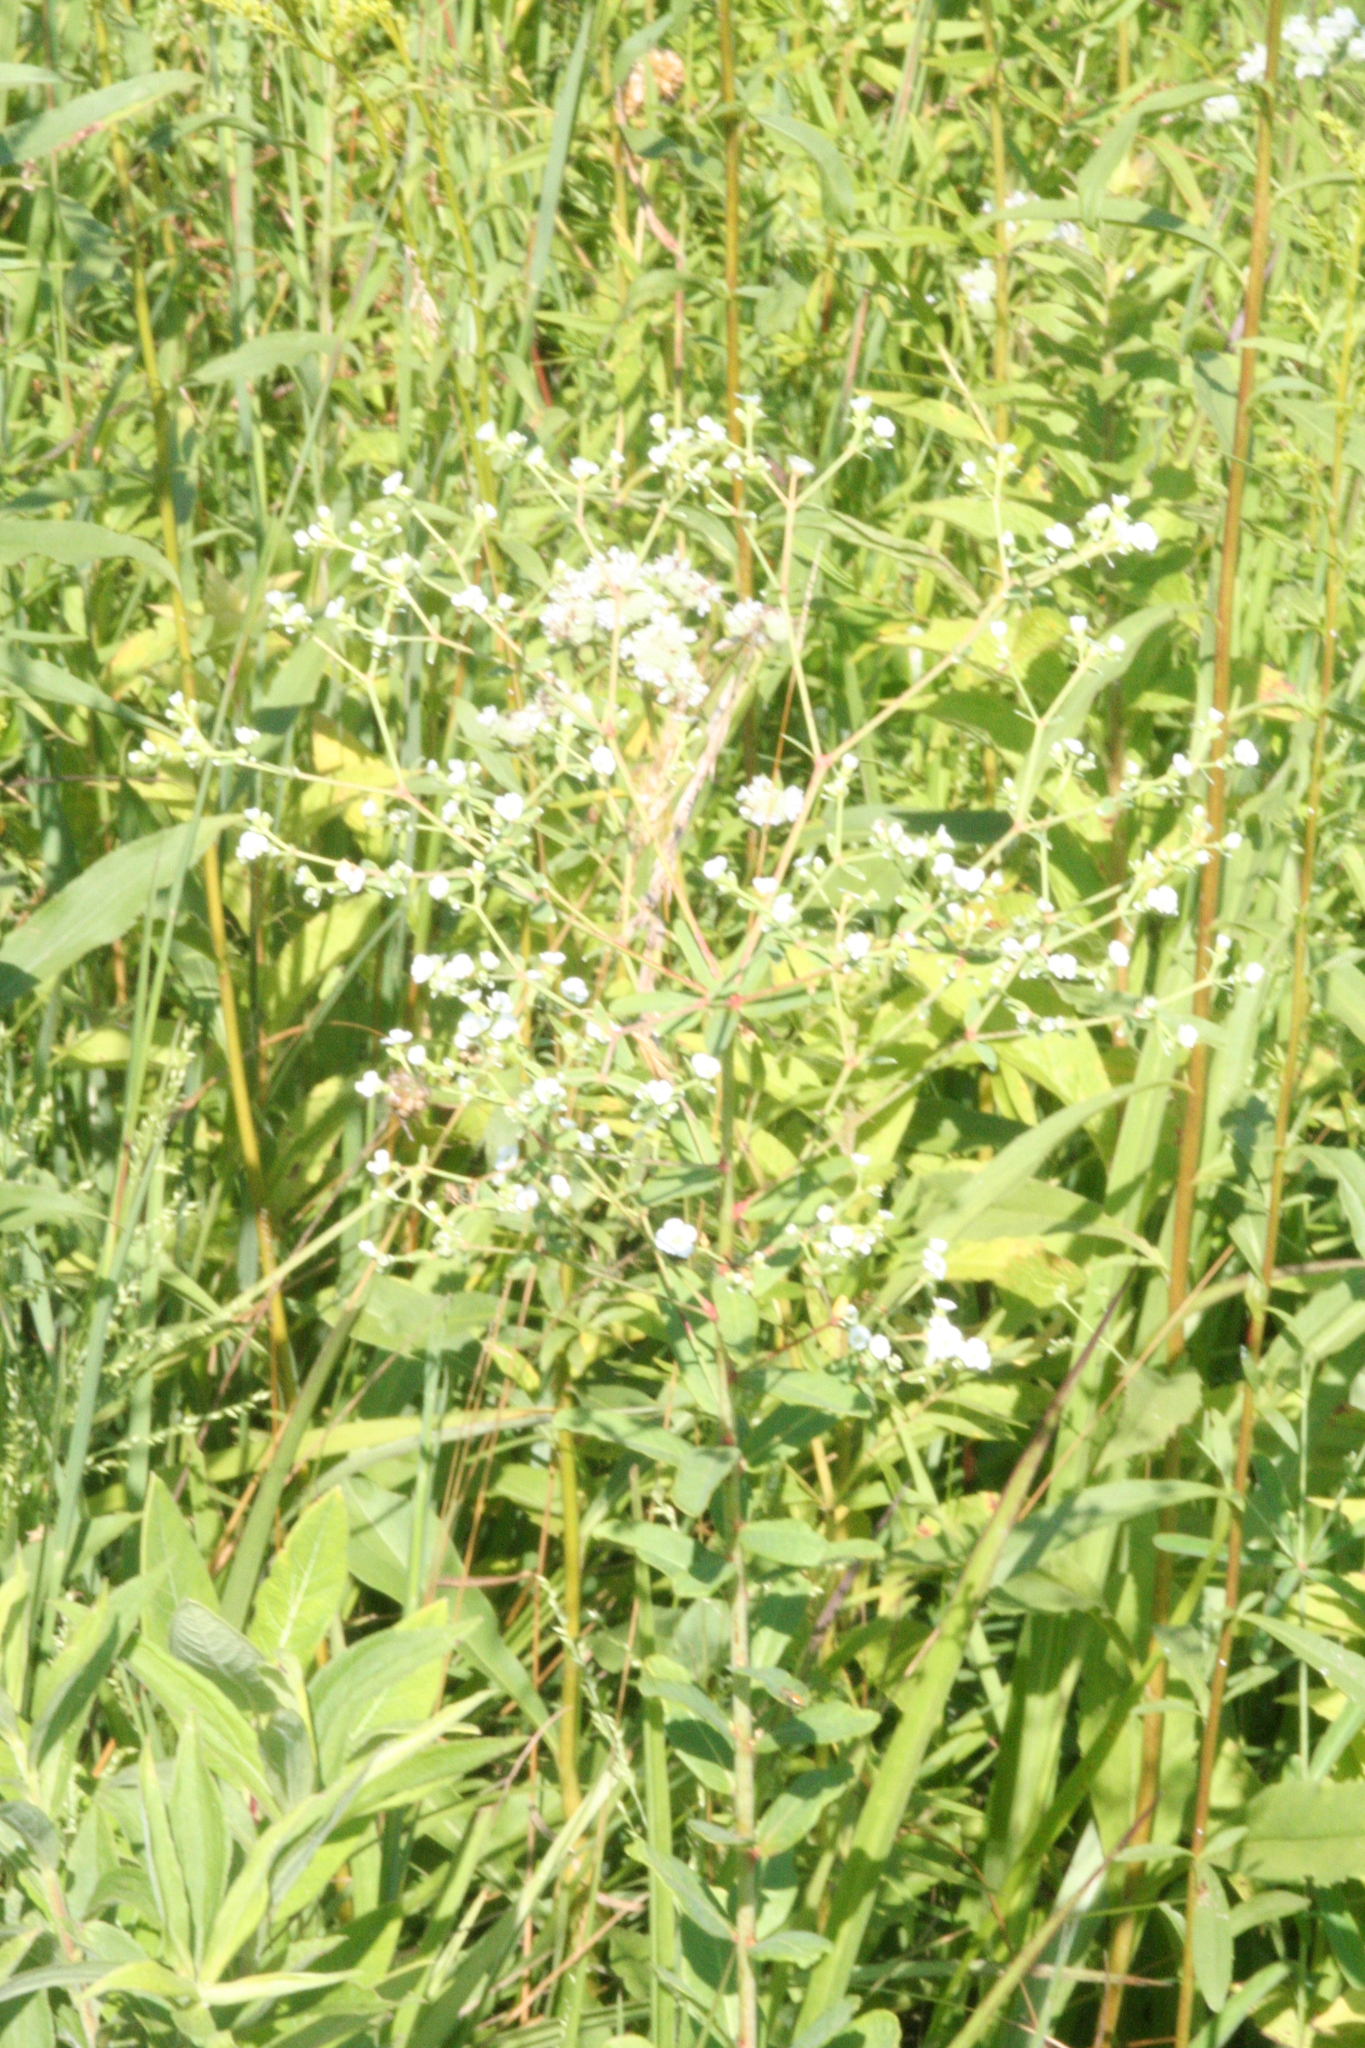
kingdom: Plantae
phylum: Tracheophyta
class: Magnoliopsida
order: Malpighiales
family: Euphorbiaceae
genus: Euphorbia
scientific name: Euphorbia corollata
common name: Flowering spurge
